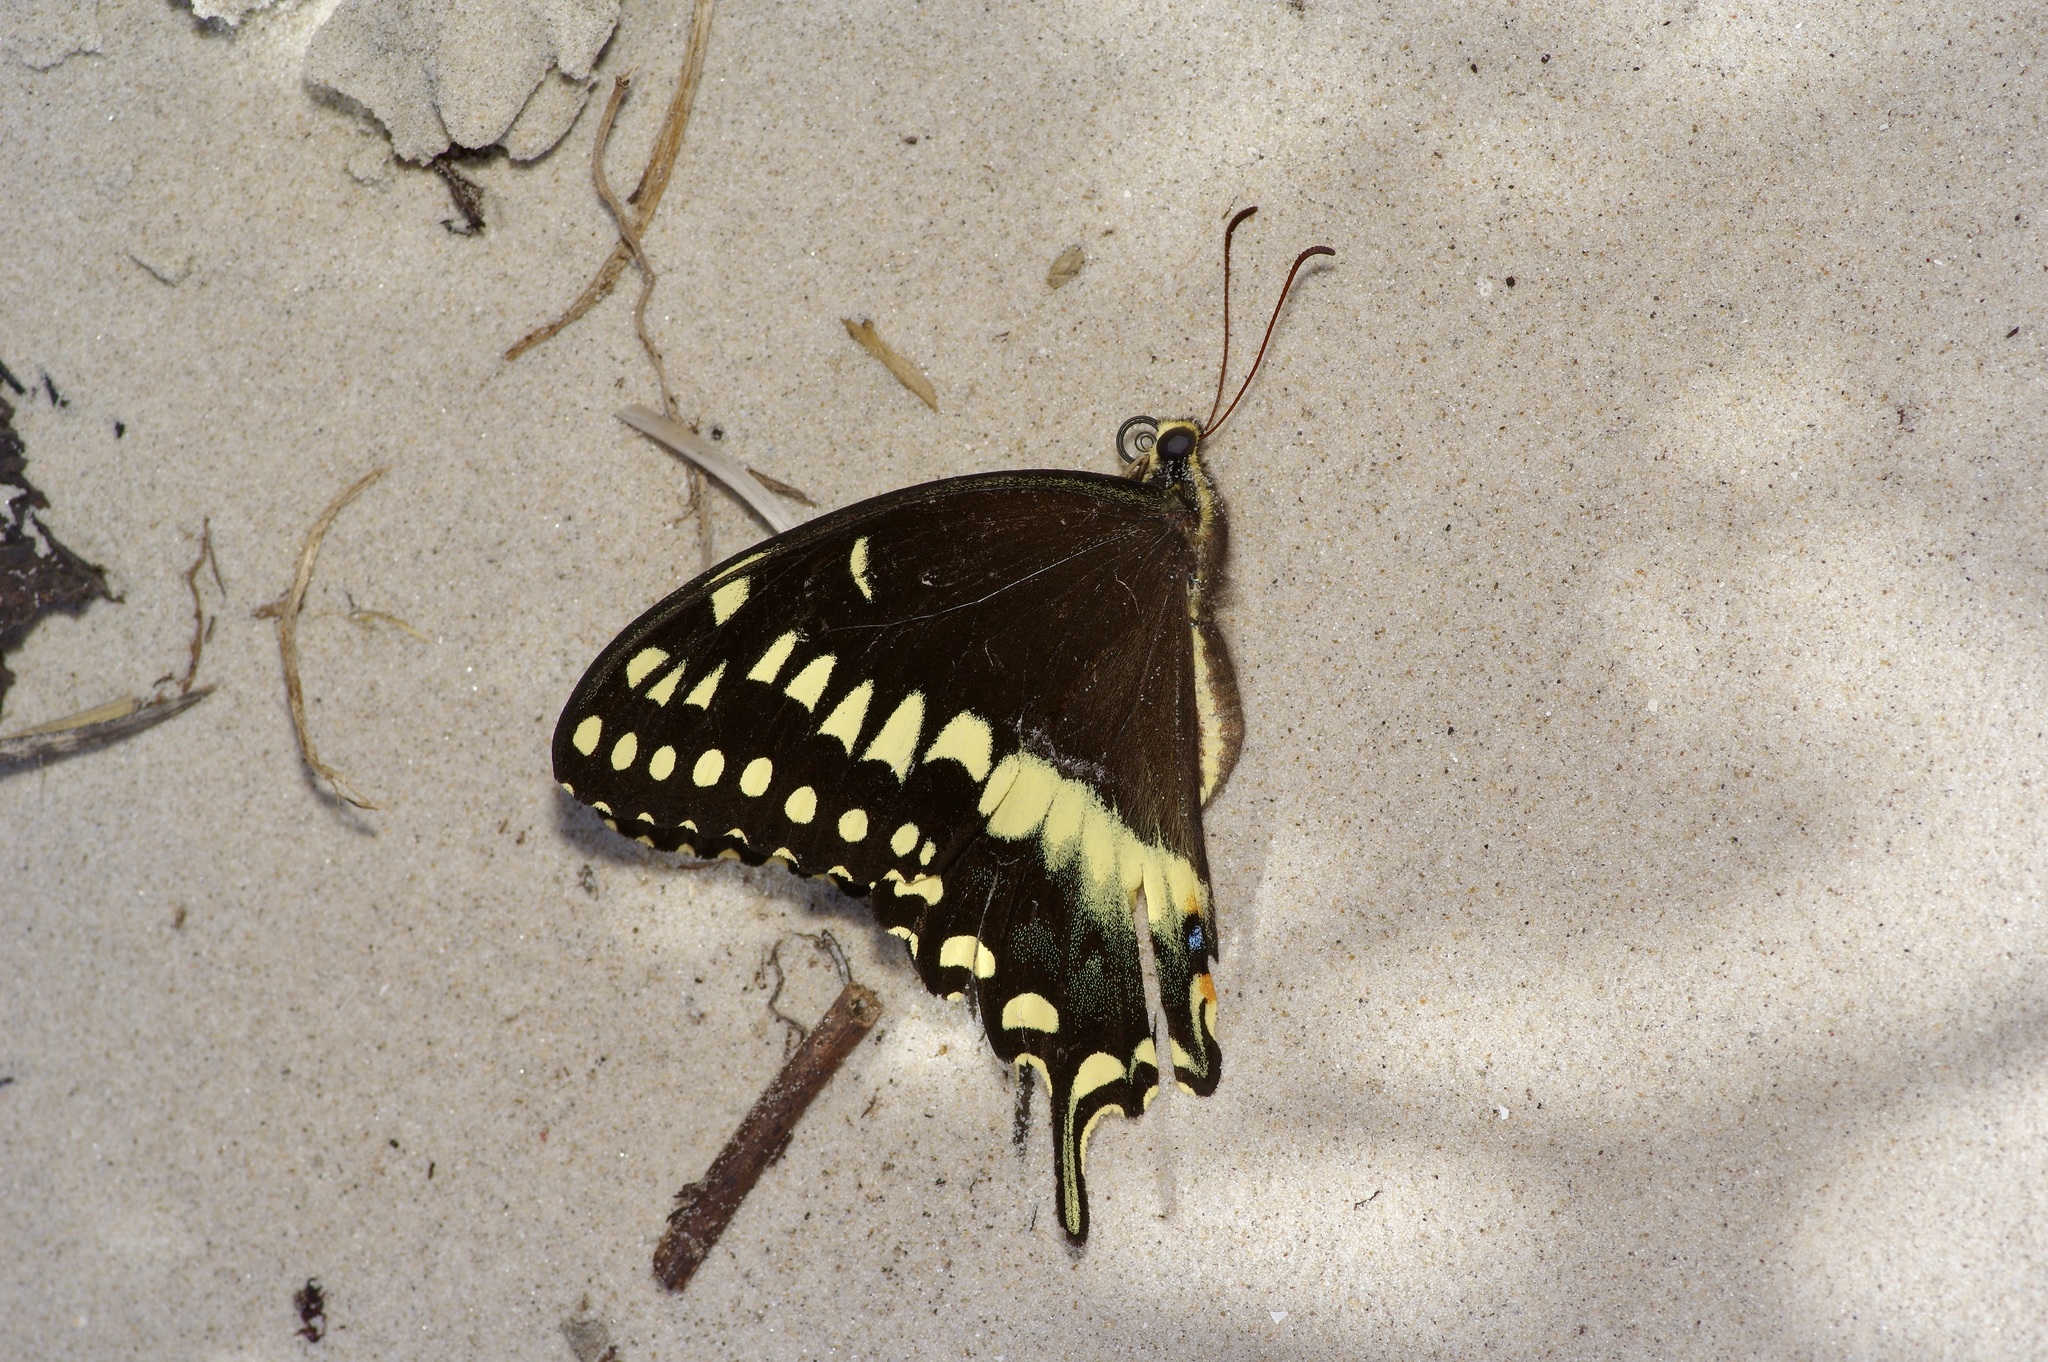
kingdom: Animalia
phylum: Arthropoda
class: Insecta
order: Lepidoptera
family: Papilionidae
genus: Papilio
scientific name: Papilio palamedes
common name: Palamedes swallowtail
